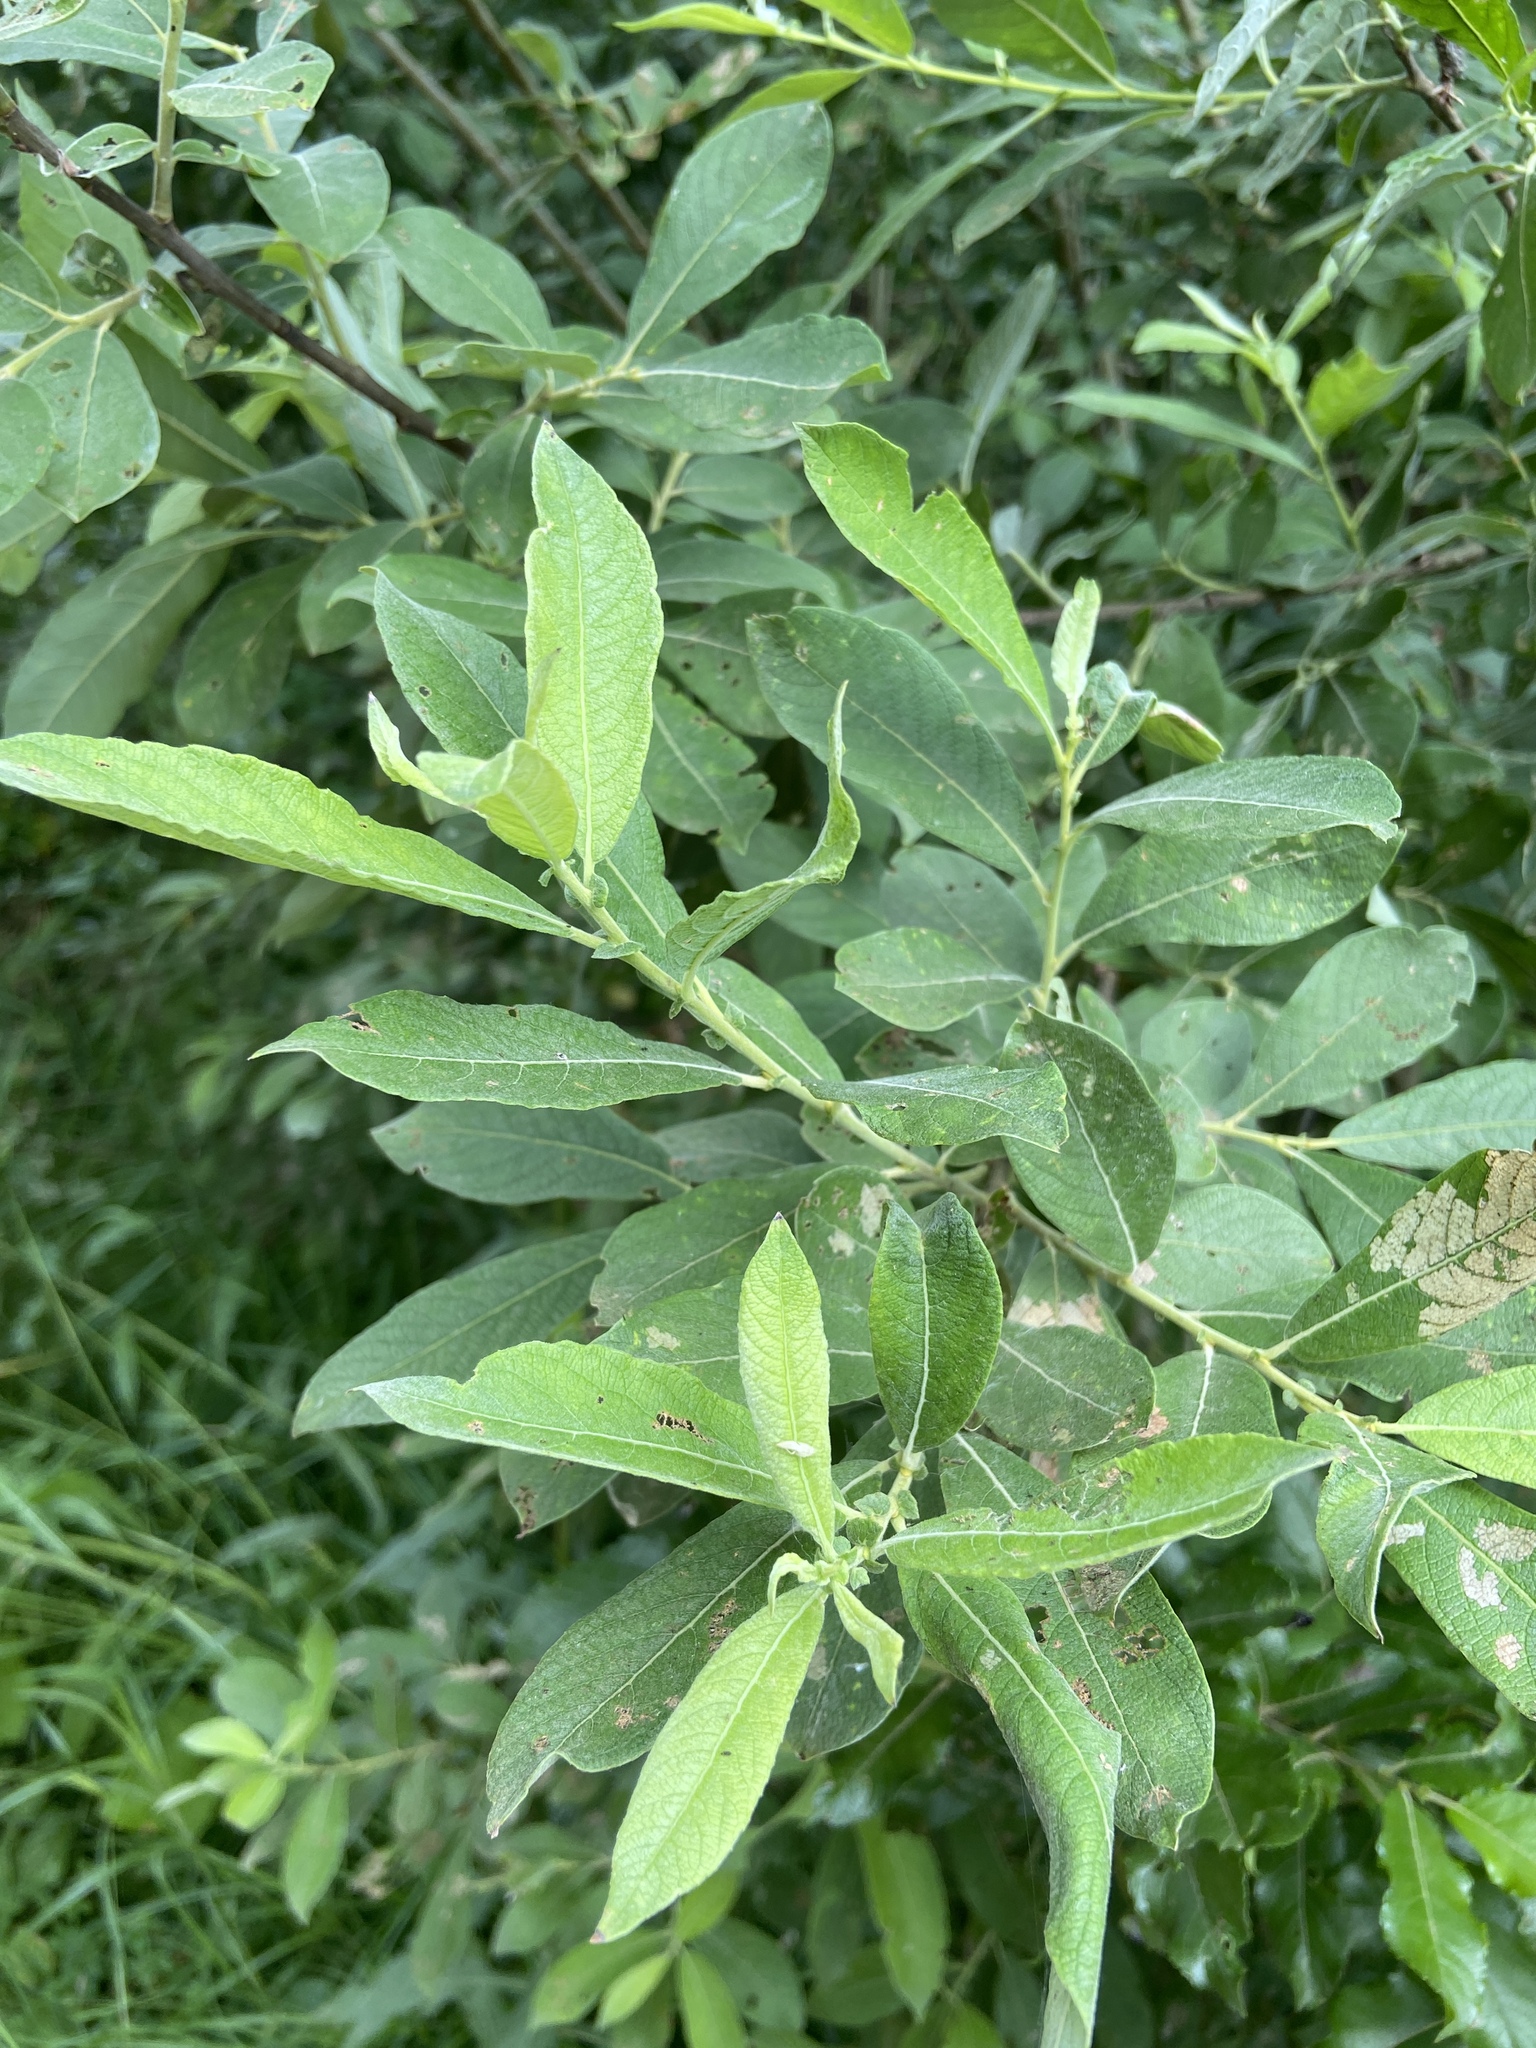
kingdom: Plantae
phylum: Tracheophyta
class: Magnoliopsida
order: Malpighiales
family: Salicaceae
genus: Salix
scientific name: Salix cinerea
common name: Common sallow
